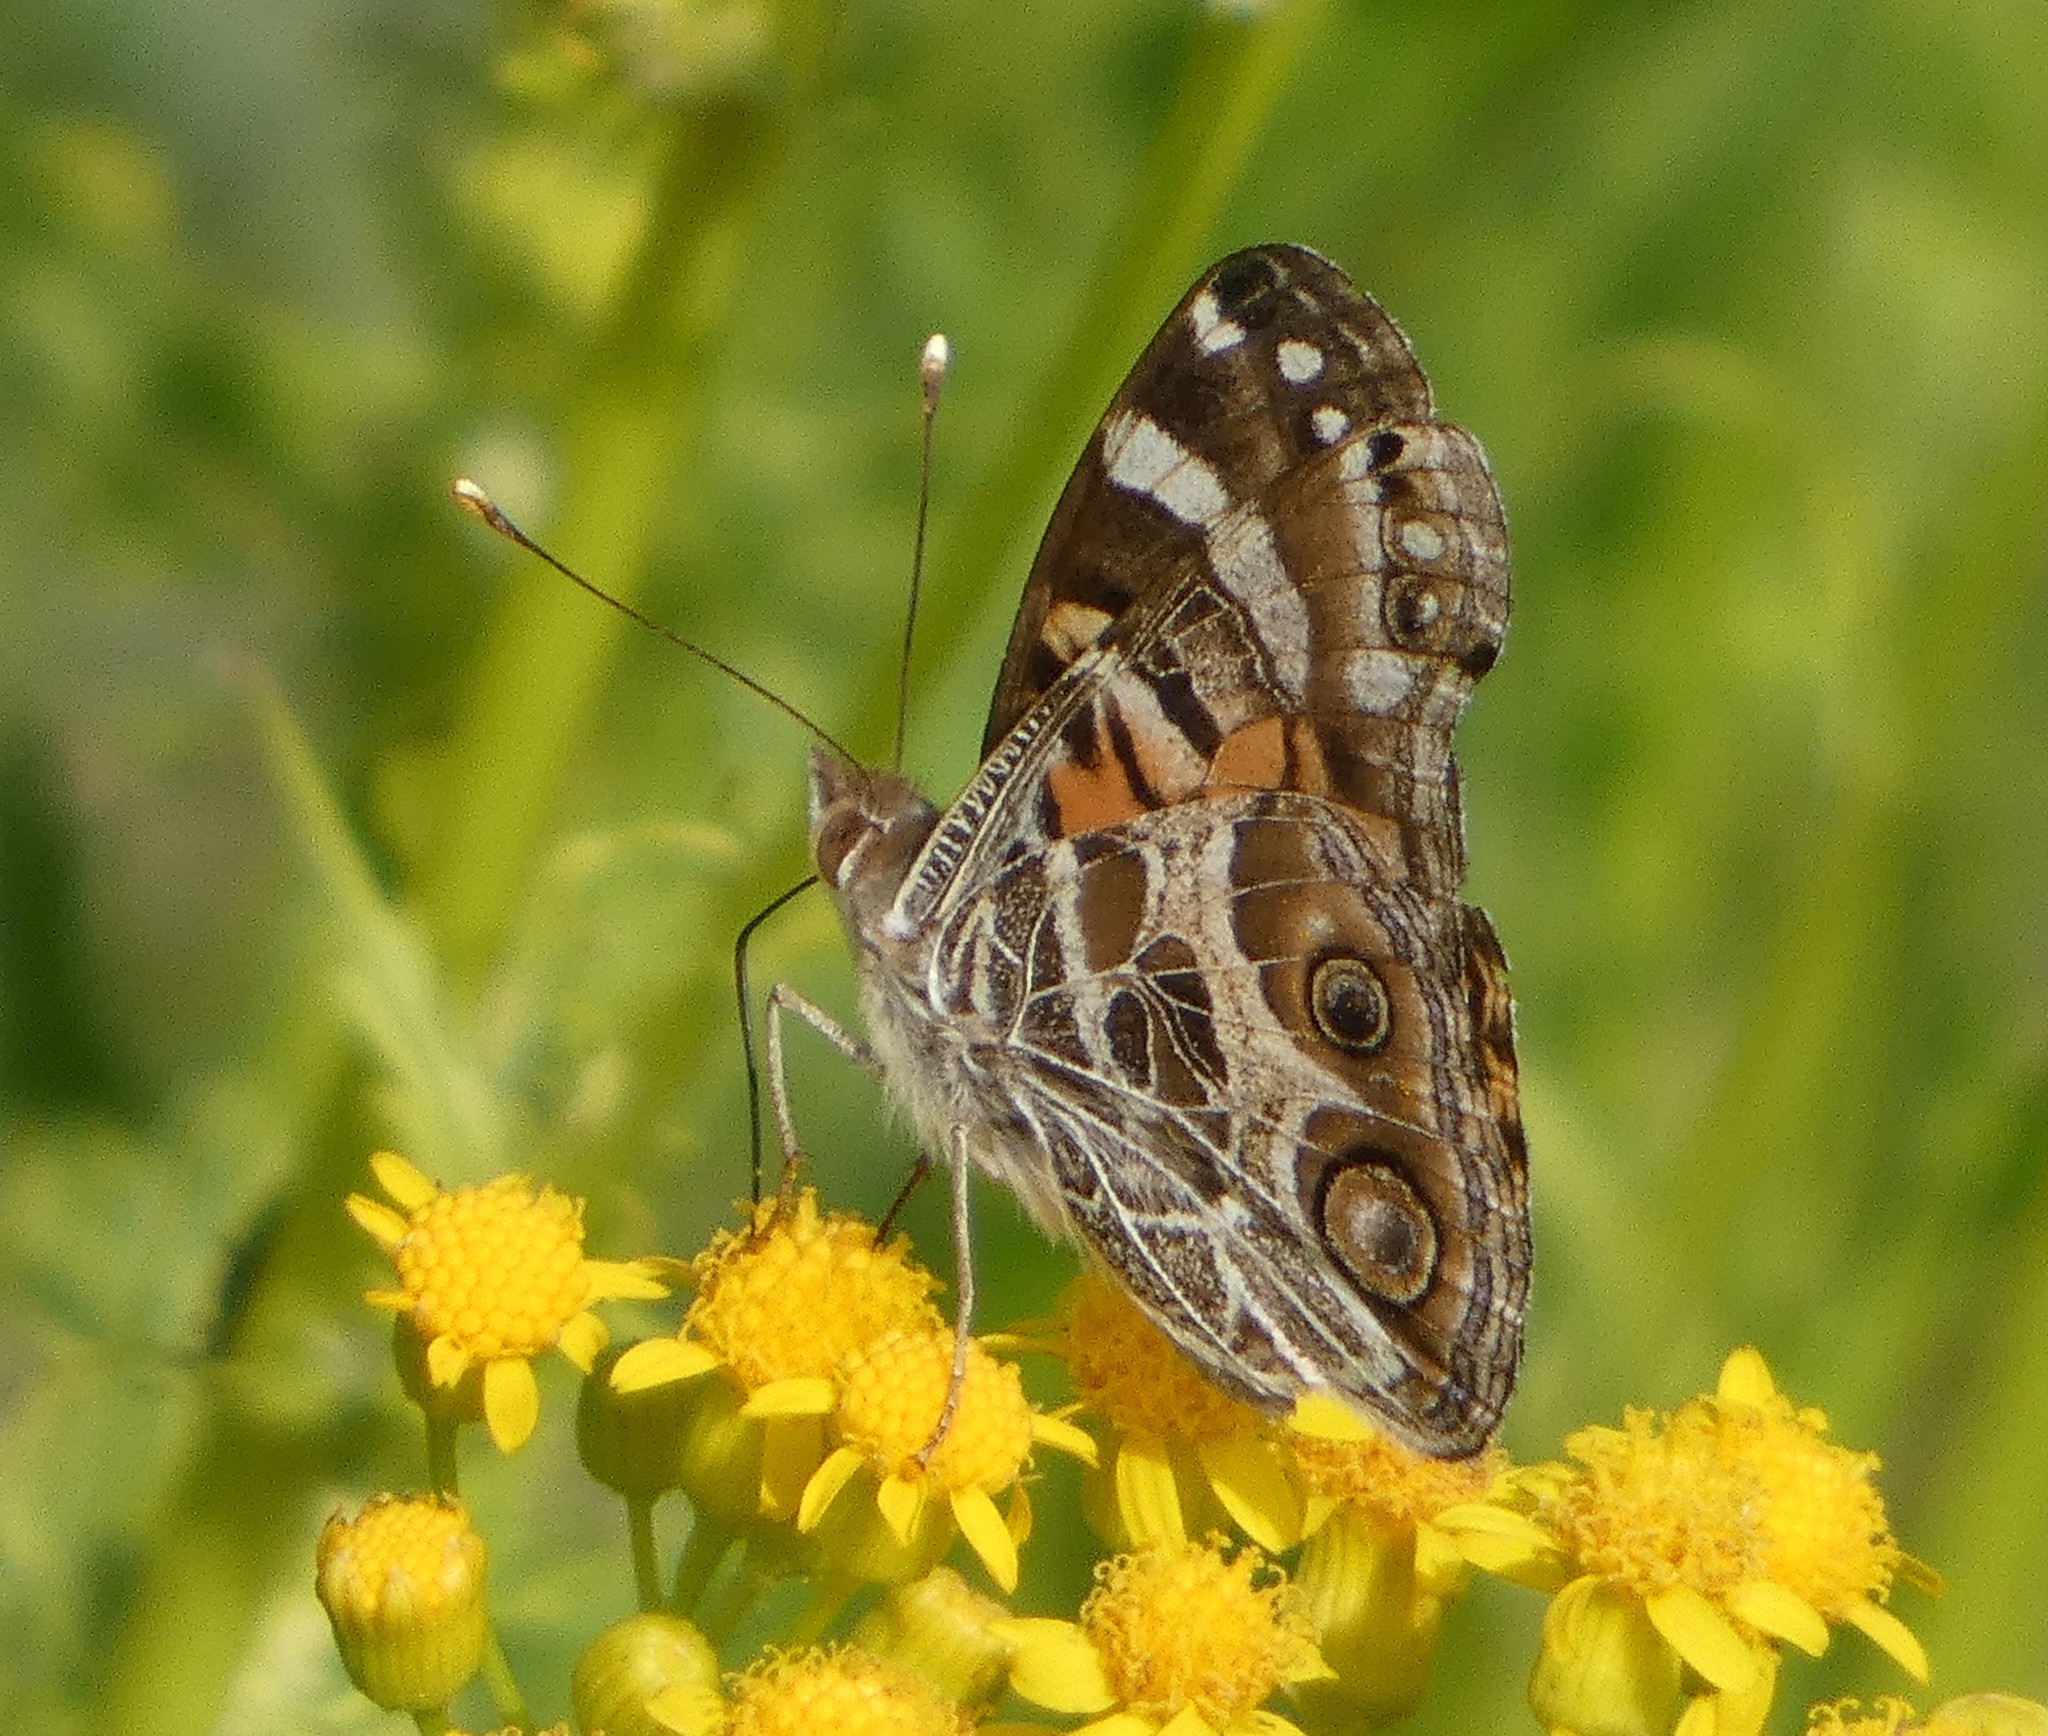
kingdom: Animalia
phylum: Arthropoda
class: Insecta
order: Lepidoptera
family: Nymphalidae
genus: Vanessa
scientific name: Vanessa virginiensis
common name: American lady
